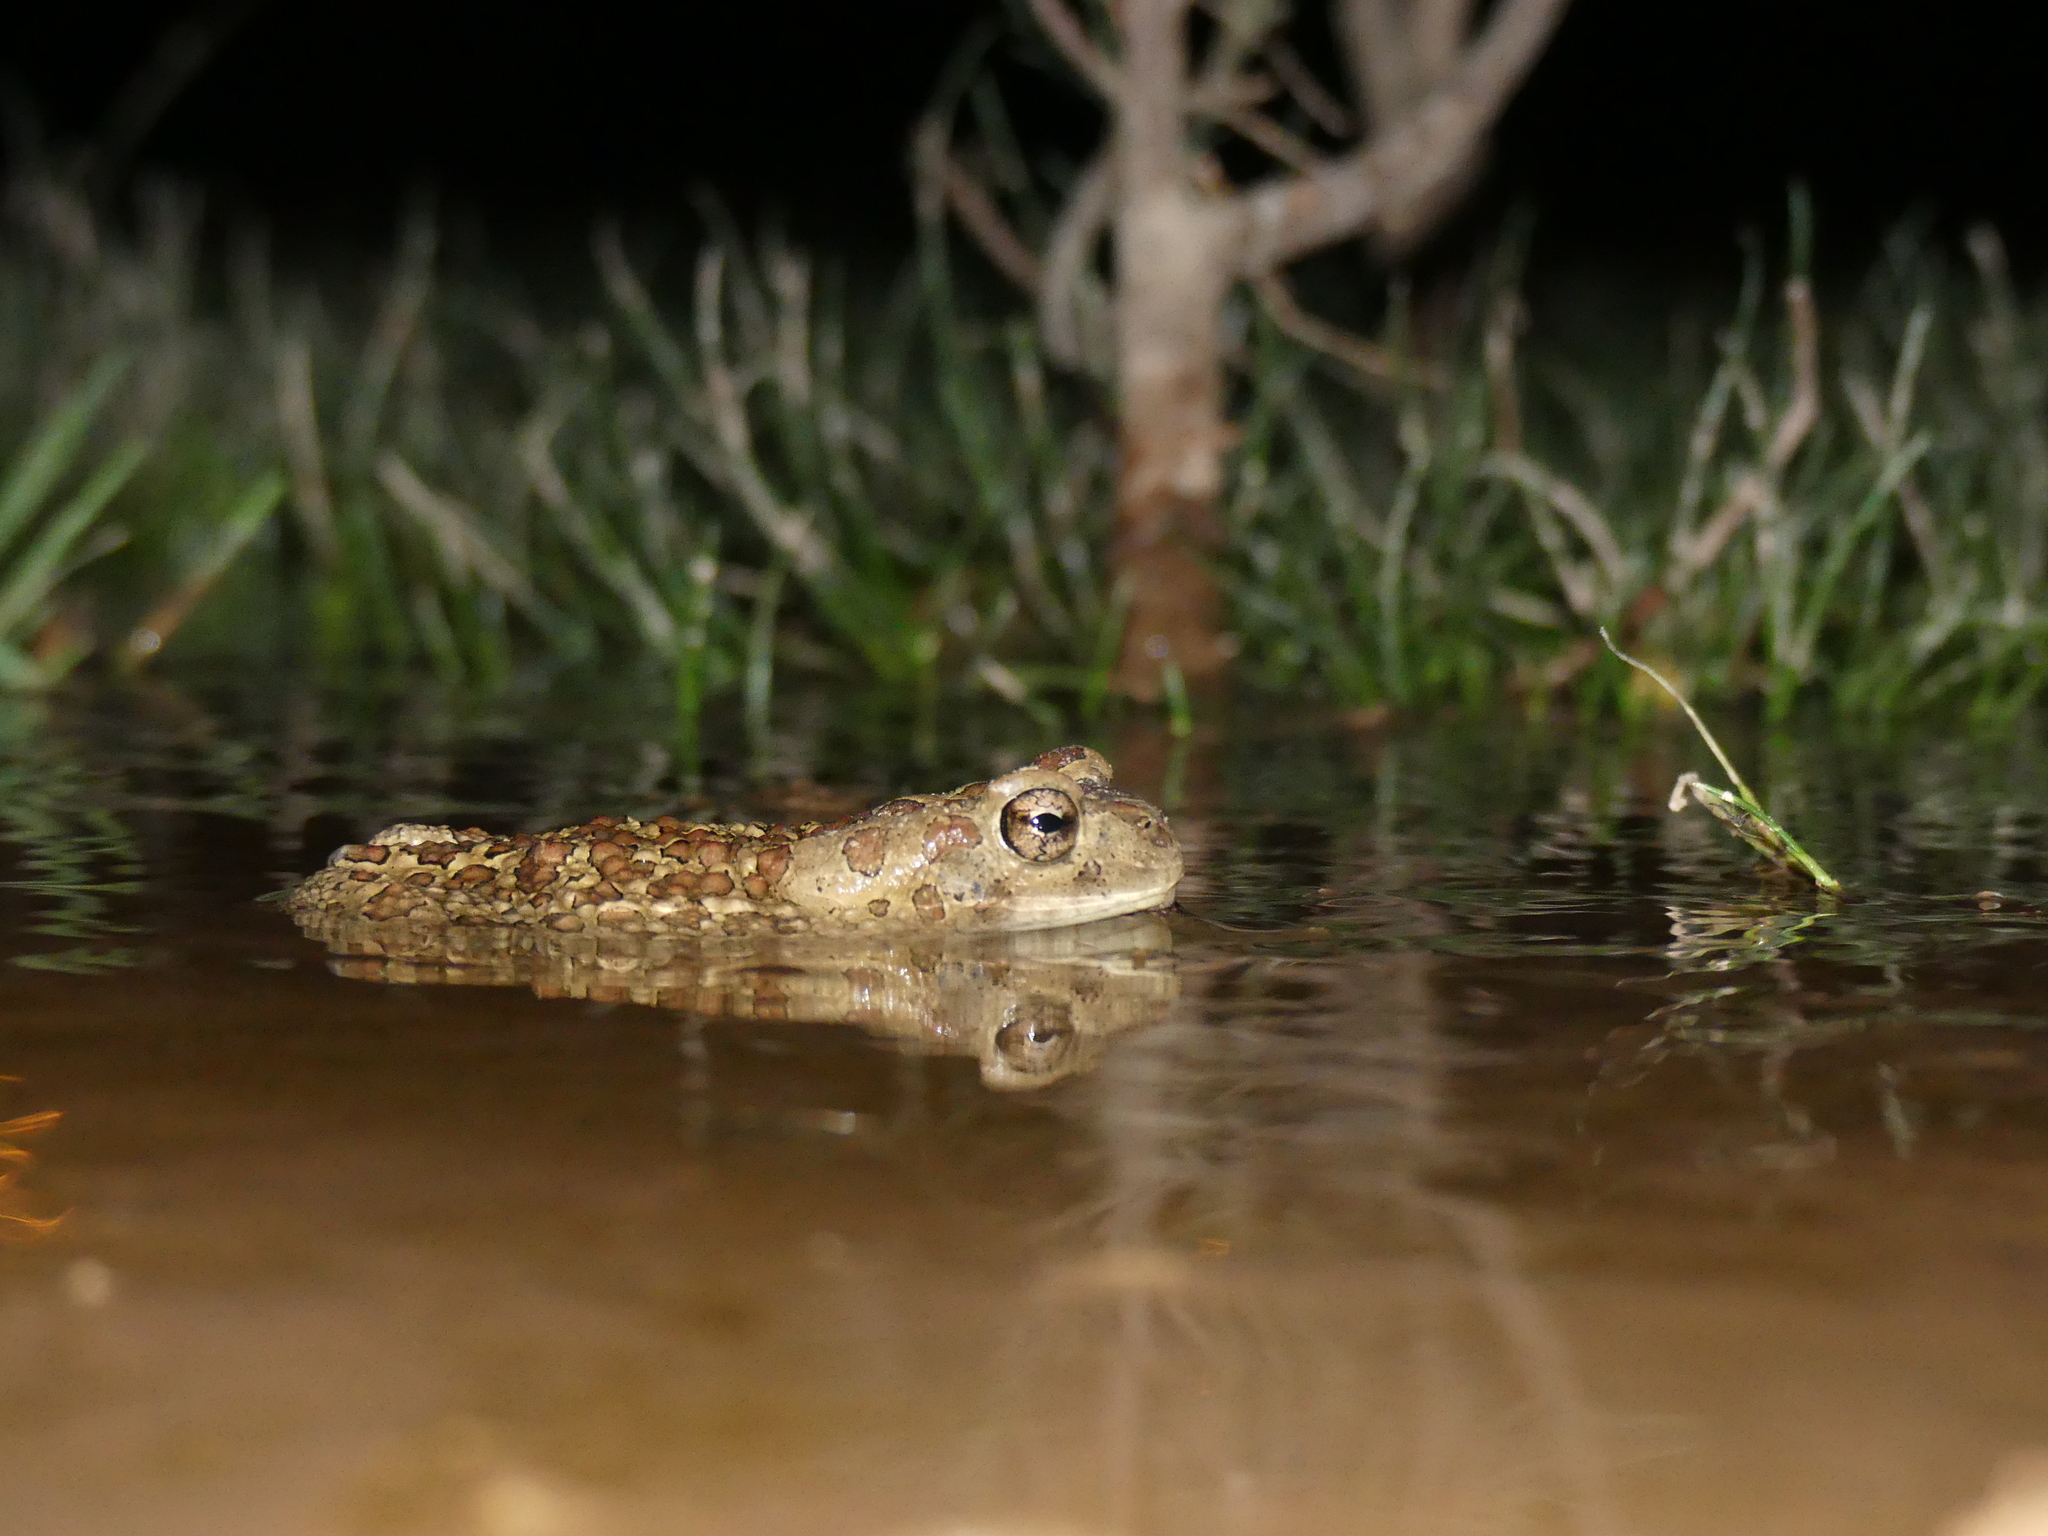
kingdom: Animalia
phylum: Chordata
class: Amphibia
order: Anura
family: Bufonidae
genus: Sclerophrys
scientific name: Sclerophrys mauritanica
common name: Berber toad
